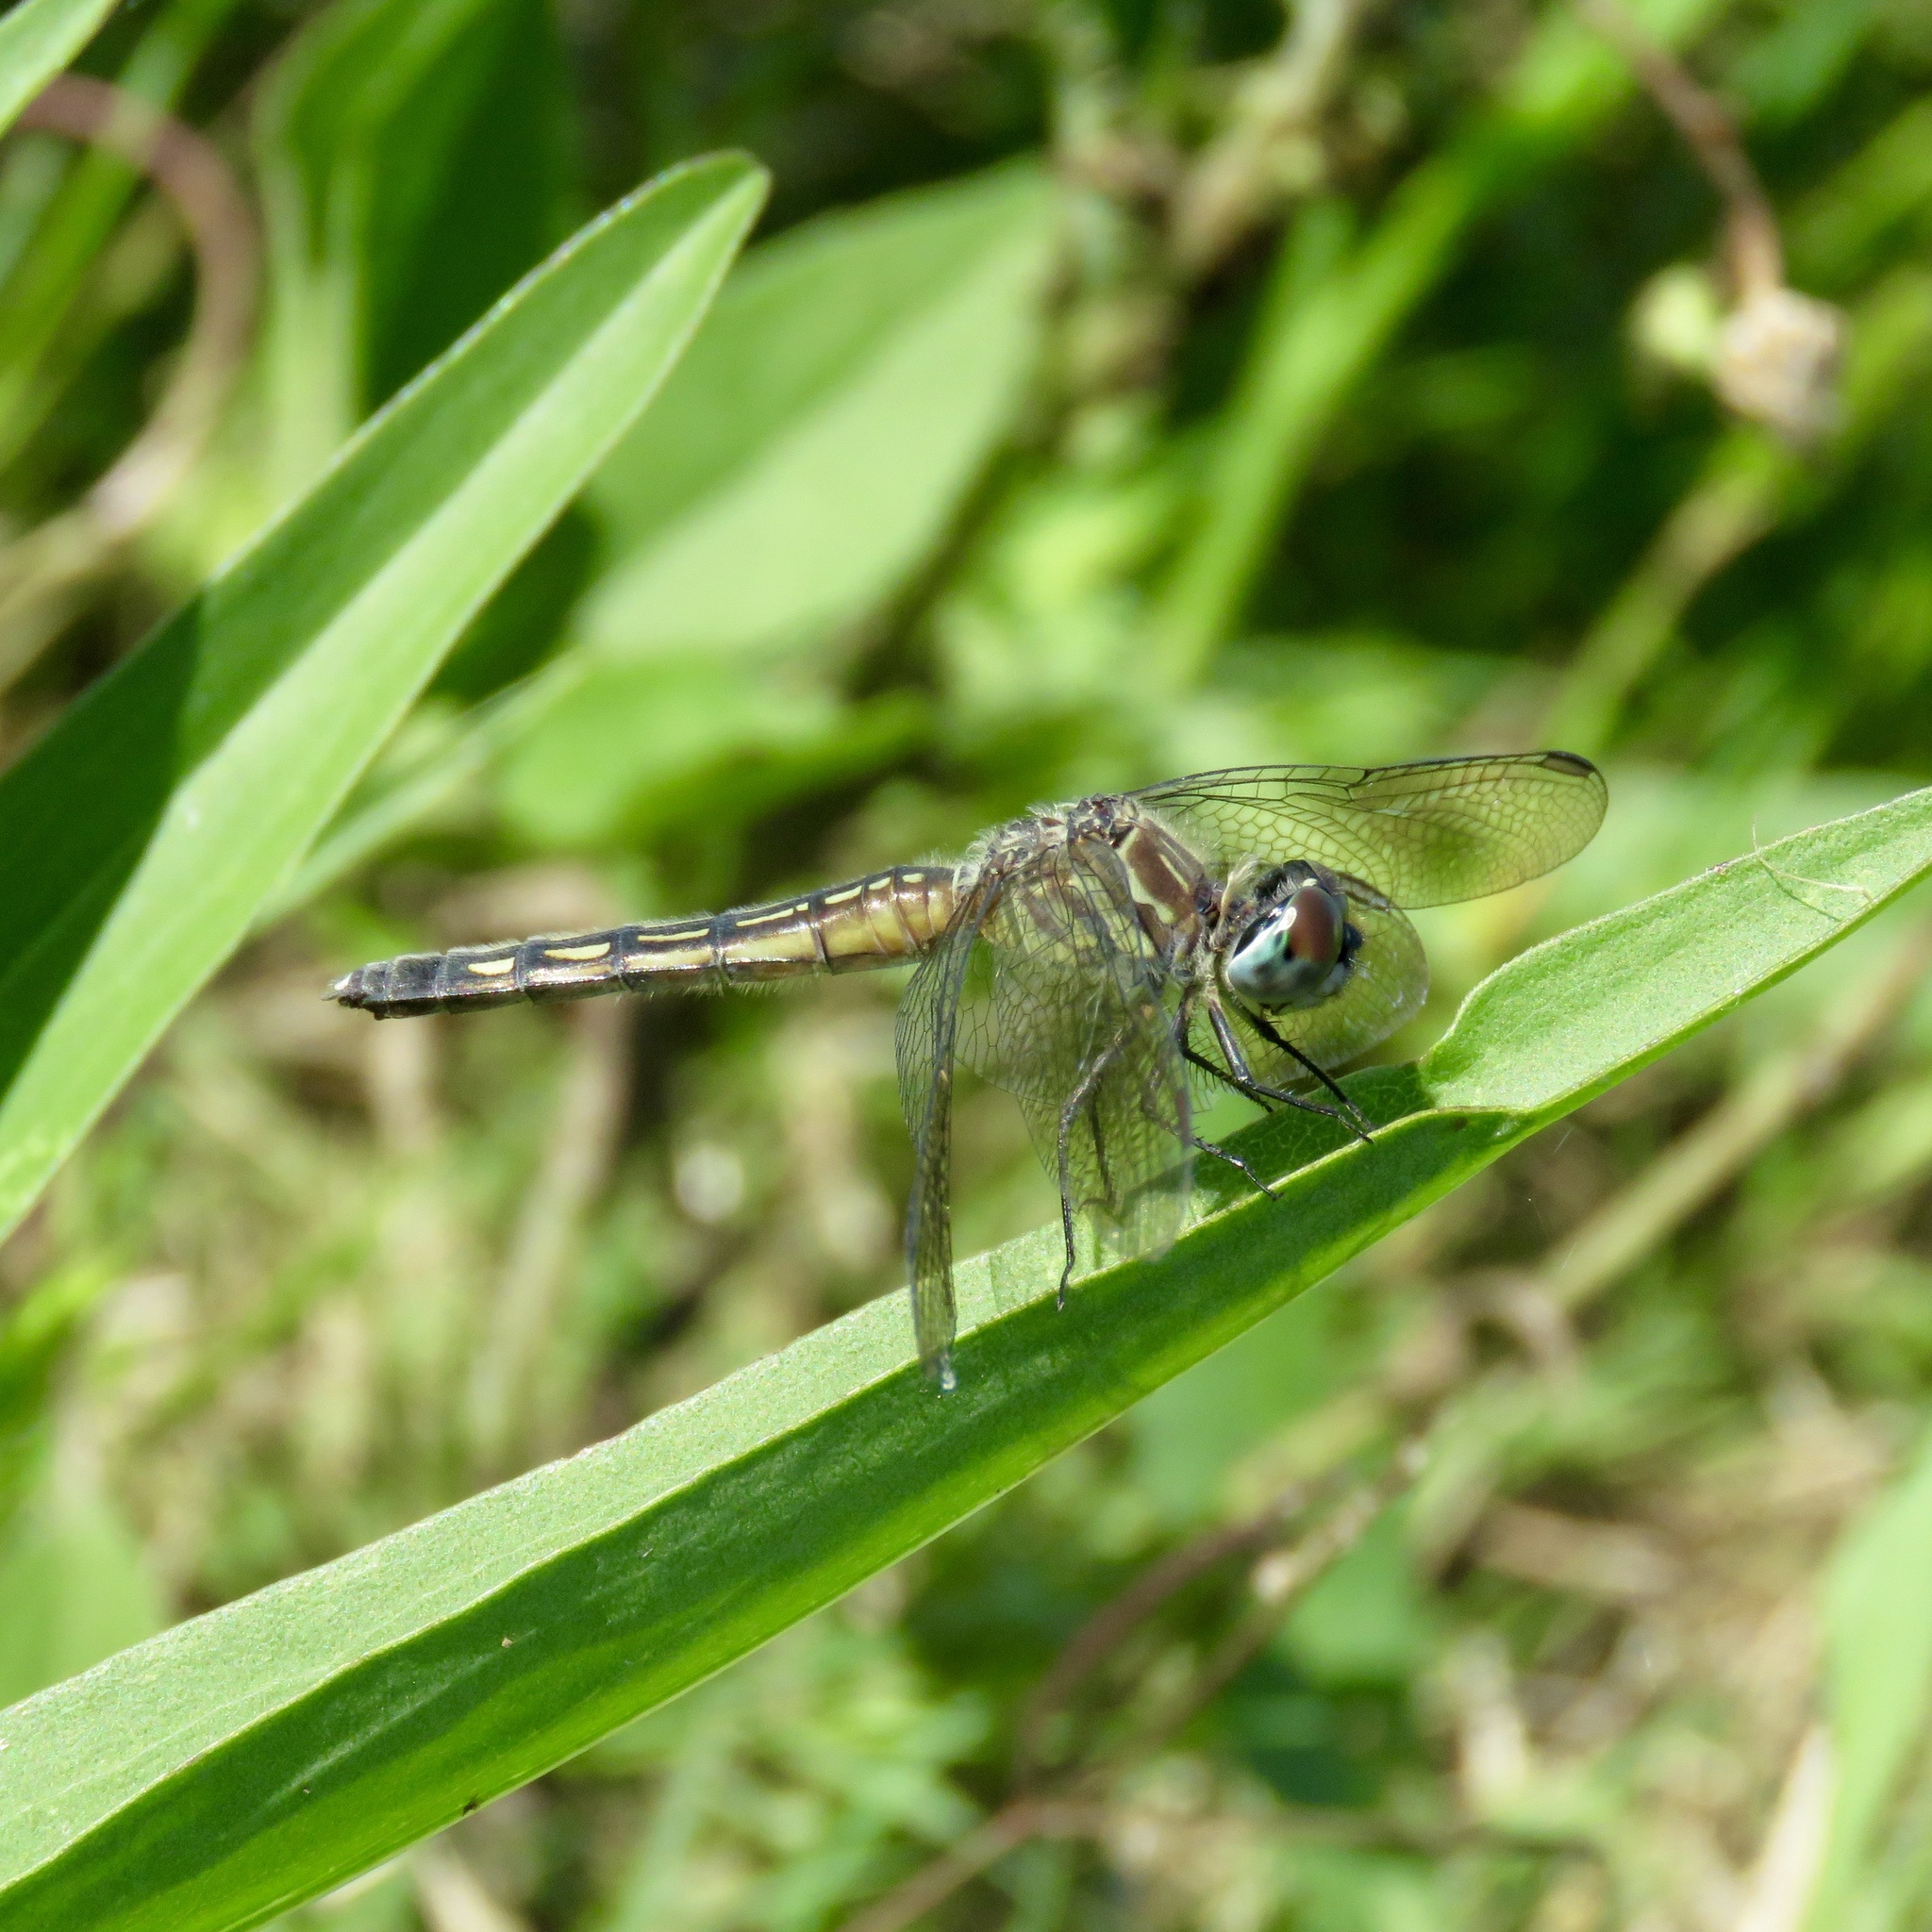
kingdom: Animalia
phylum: Arthropoda
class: Insecta
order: Odonata
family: Libellulidae
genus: Pachydiplax
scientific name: Pachydiplax longipennis
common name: Blue dasher
